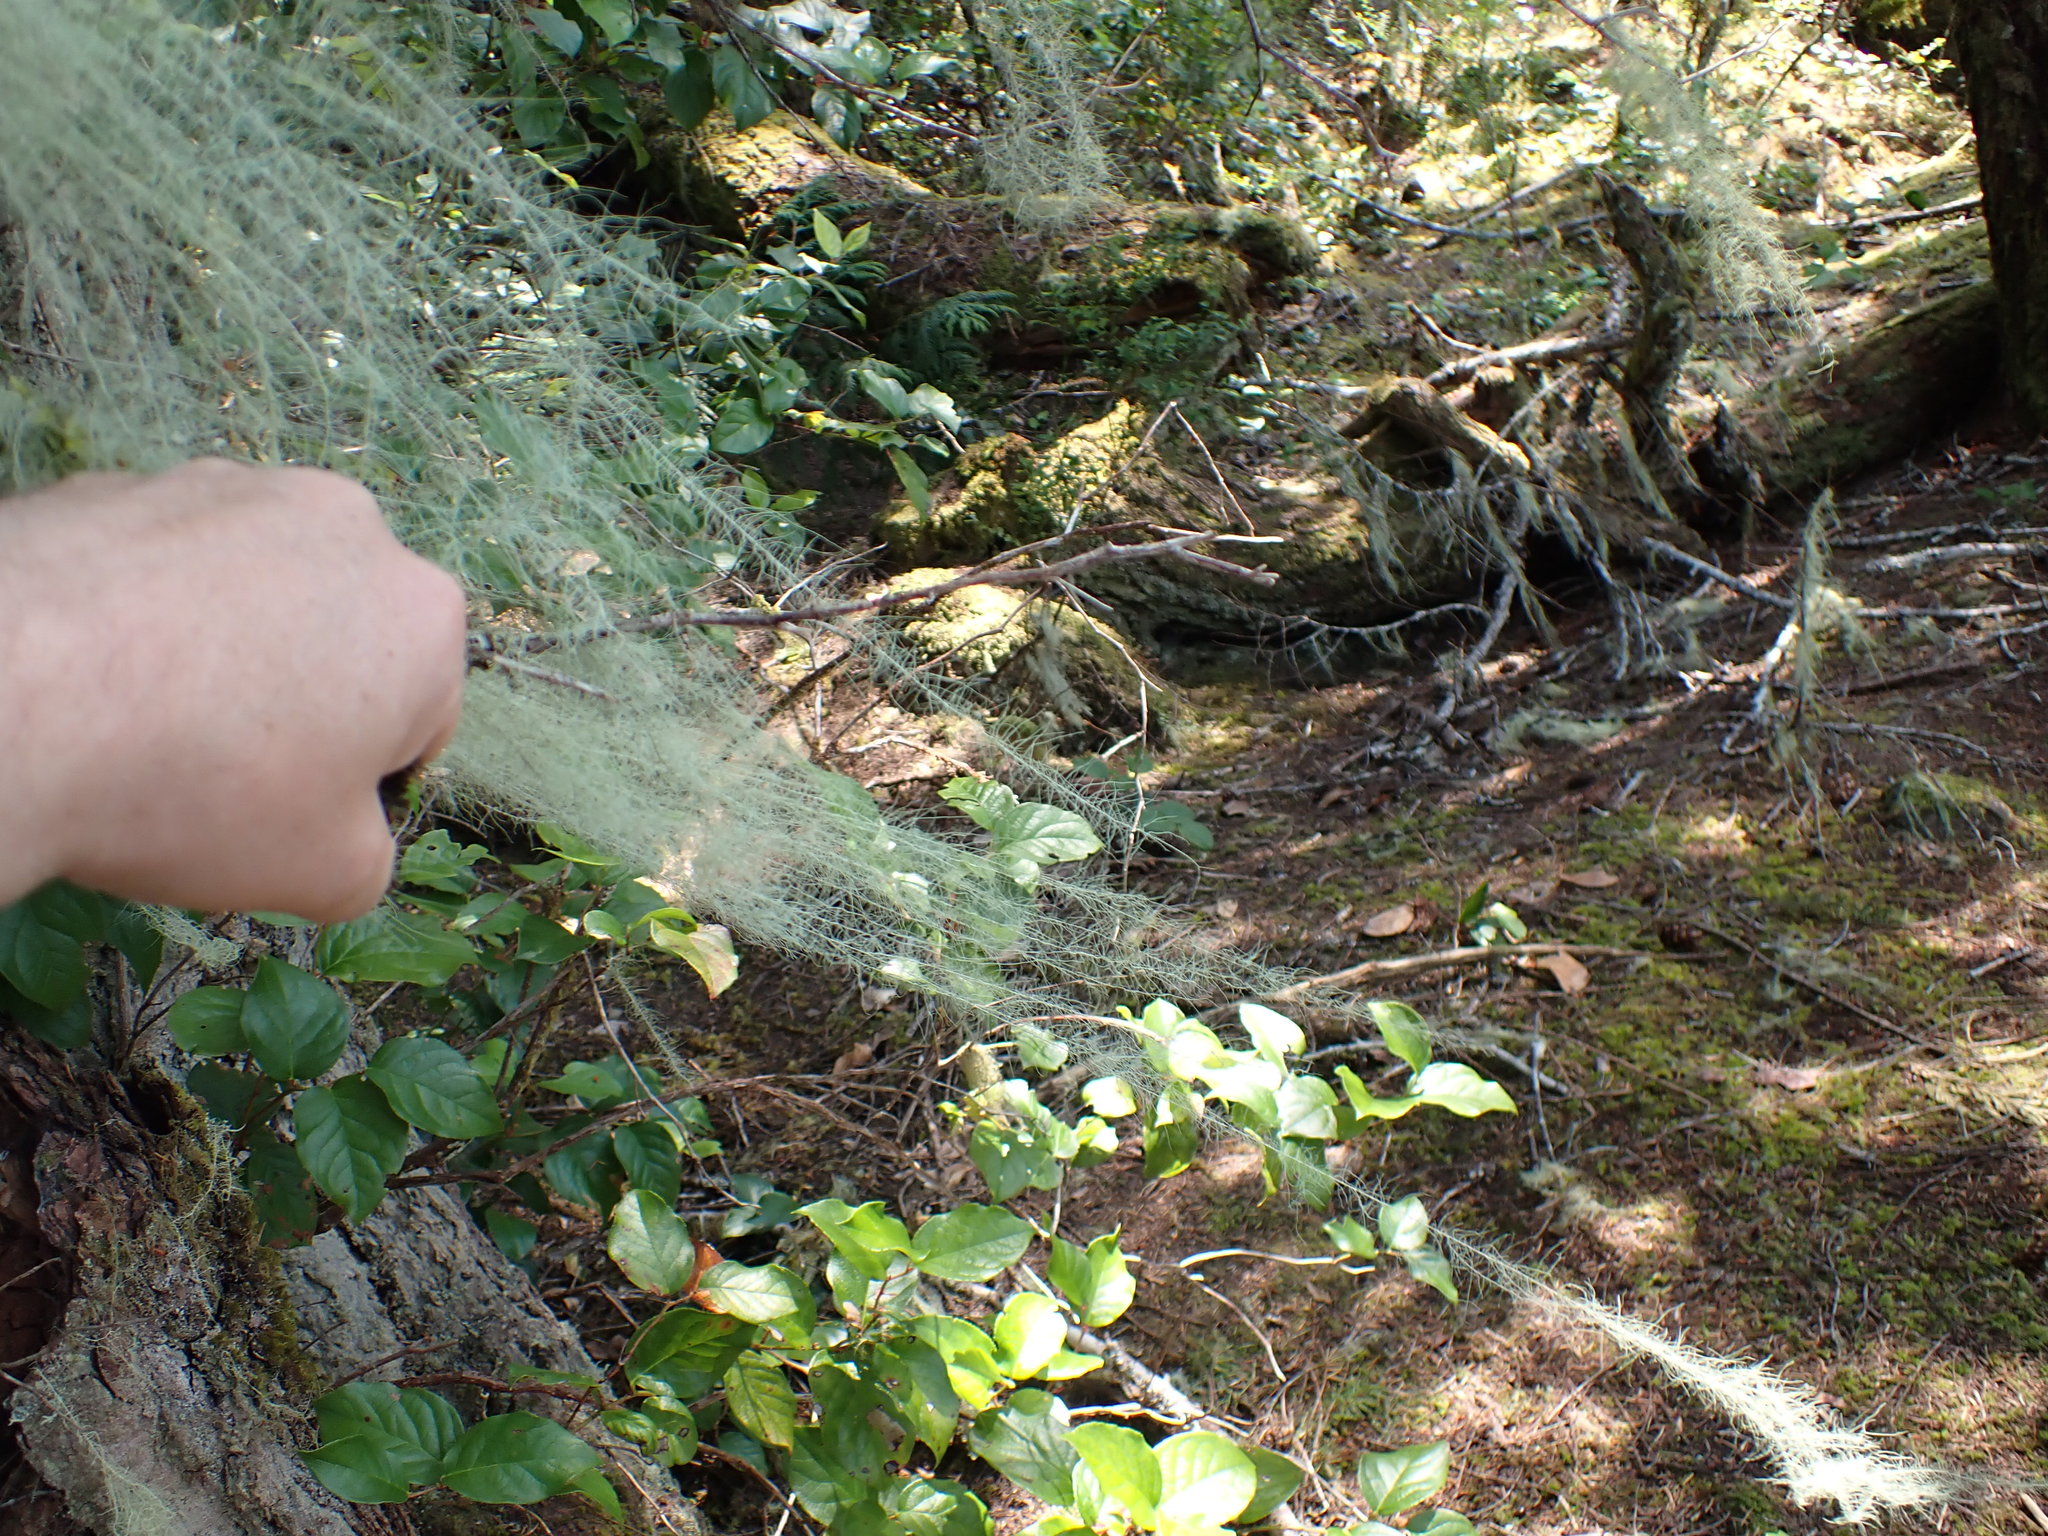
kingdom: Fungi
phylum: Ascomycota
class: Lecanoromycetes
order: Lecanorales
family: Parmeliaceae
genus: Dolichousnea
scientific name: Dolichousnea longissima
